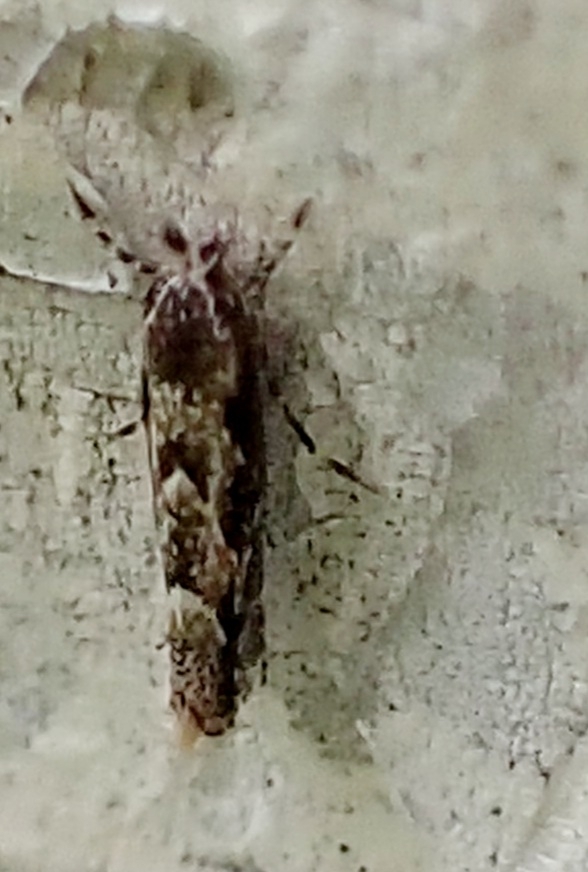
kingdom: Animalia
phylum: Arthropoda
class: Insecta
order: Lepidoptera
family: Gracillariidae
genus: Phyllonorycter
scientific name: Phyllonorycter issikii
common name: Linden midget
